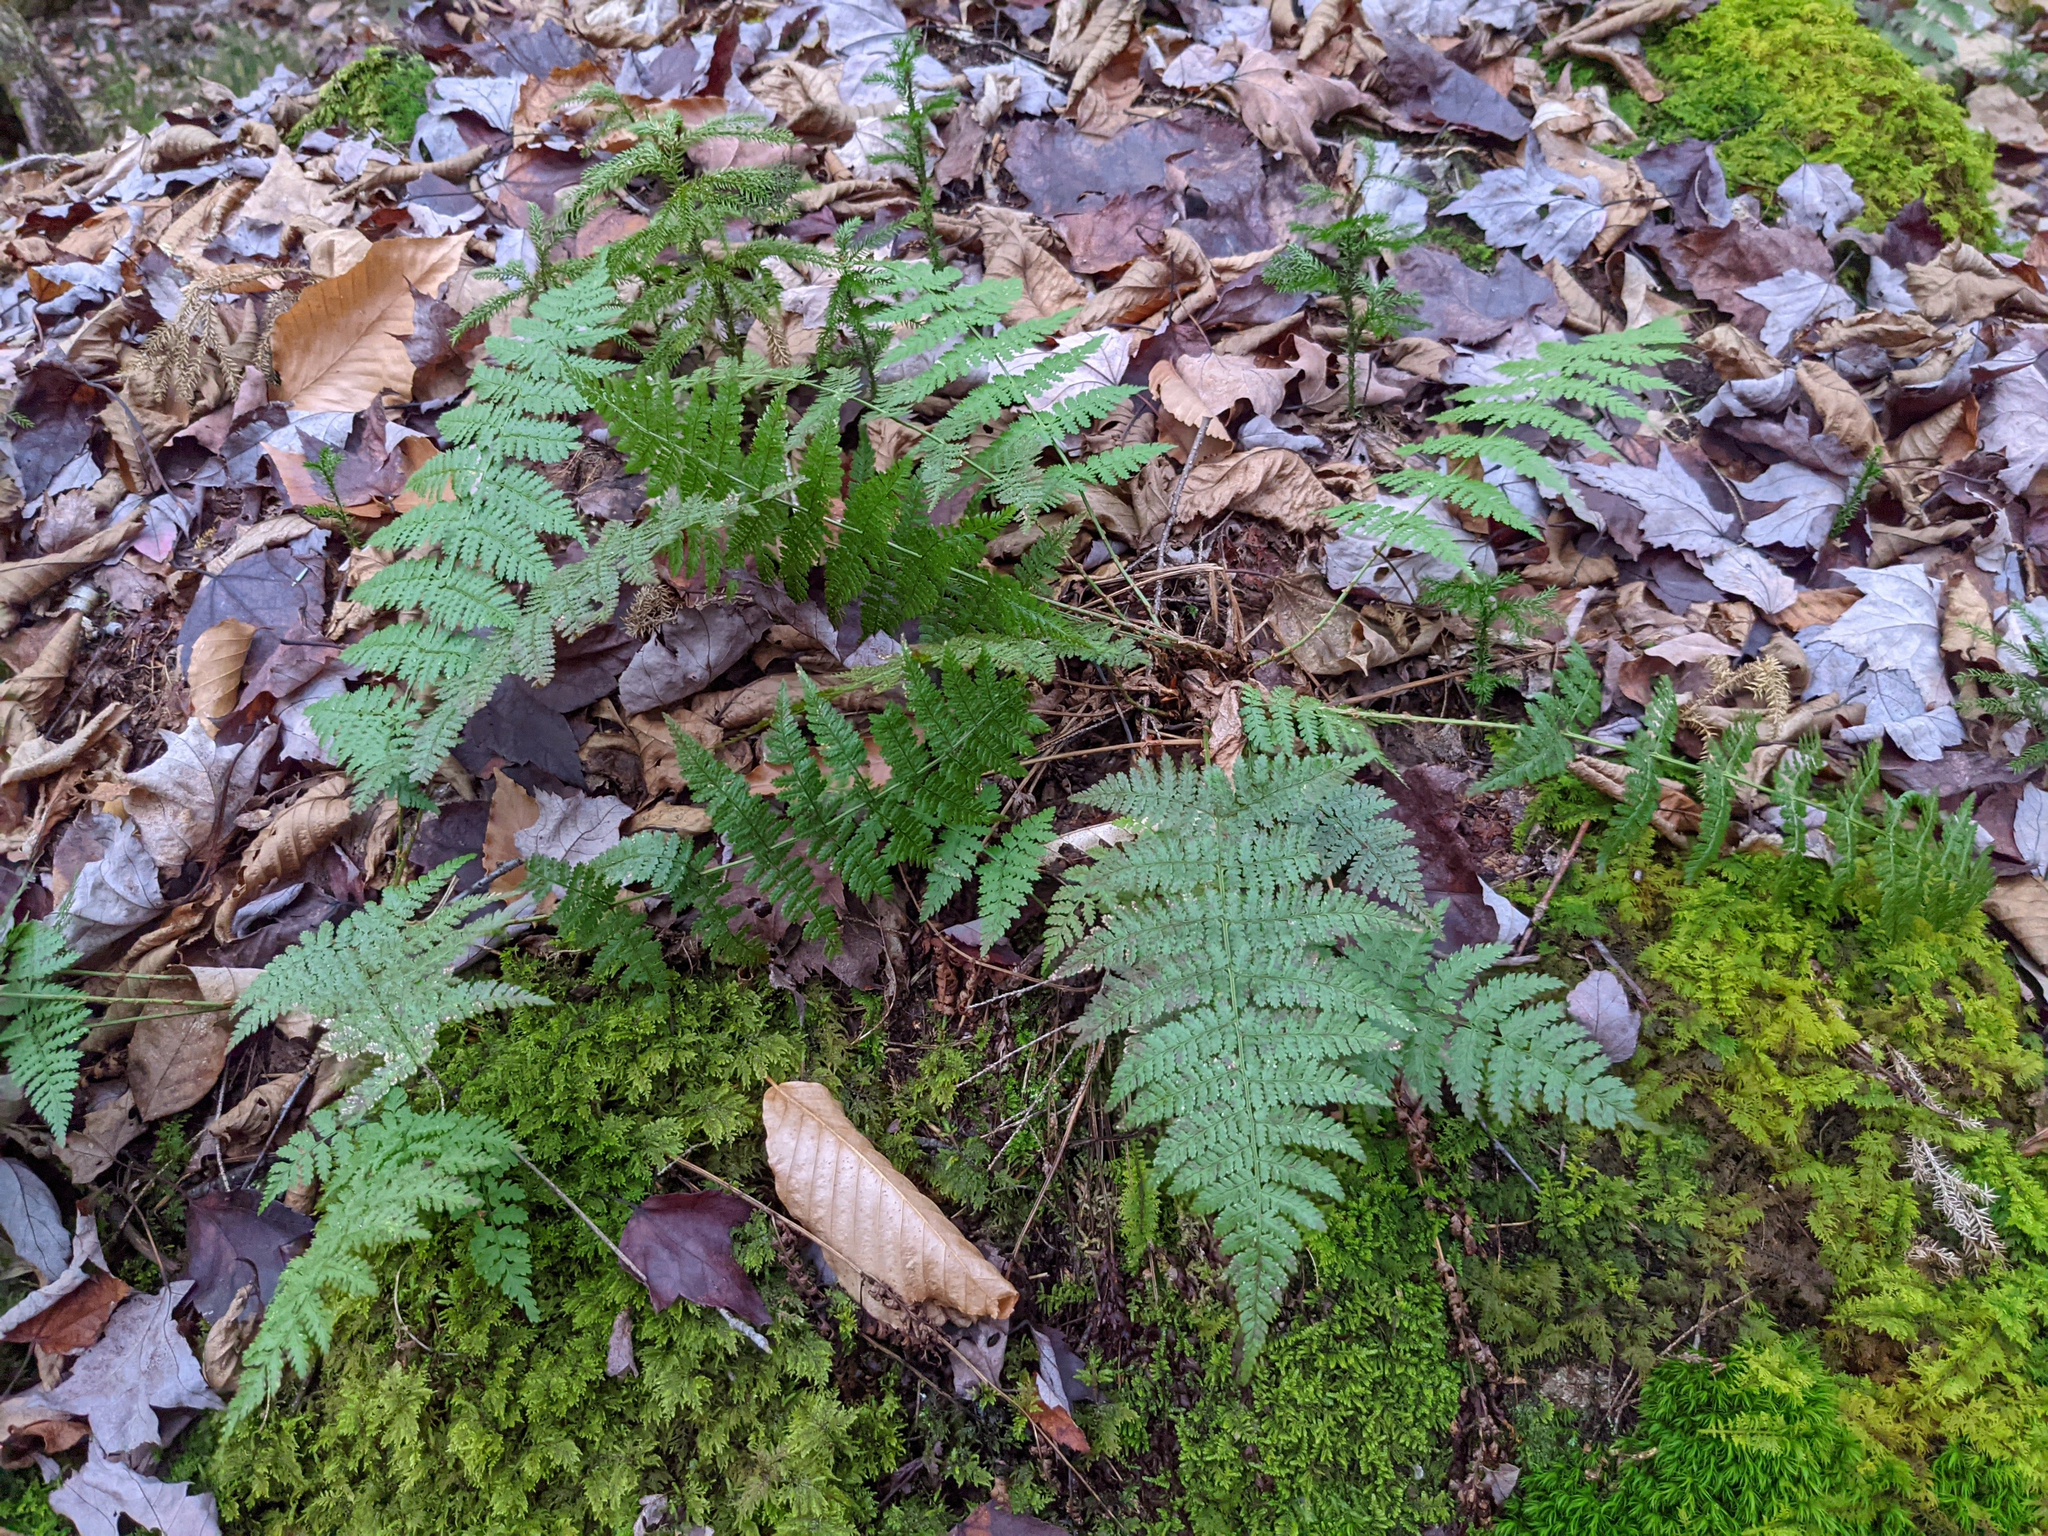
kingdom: Plantae
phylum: Tracheophyta
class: Polypodiopsida
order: Polypodiales
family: Dryopteridaceae
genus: Dryopteris
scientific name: Dryopteris intermedia
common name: Evergreen wood fern
